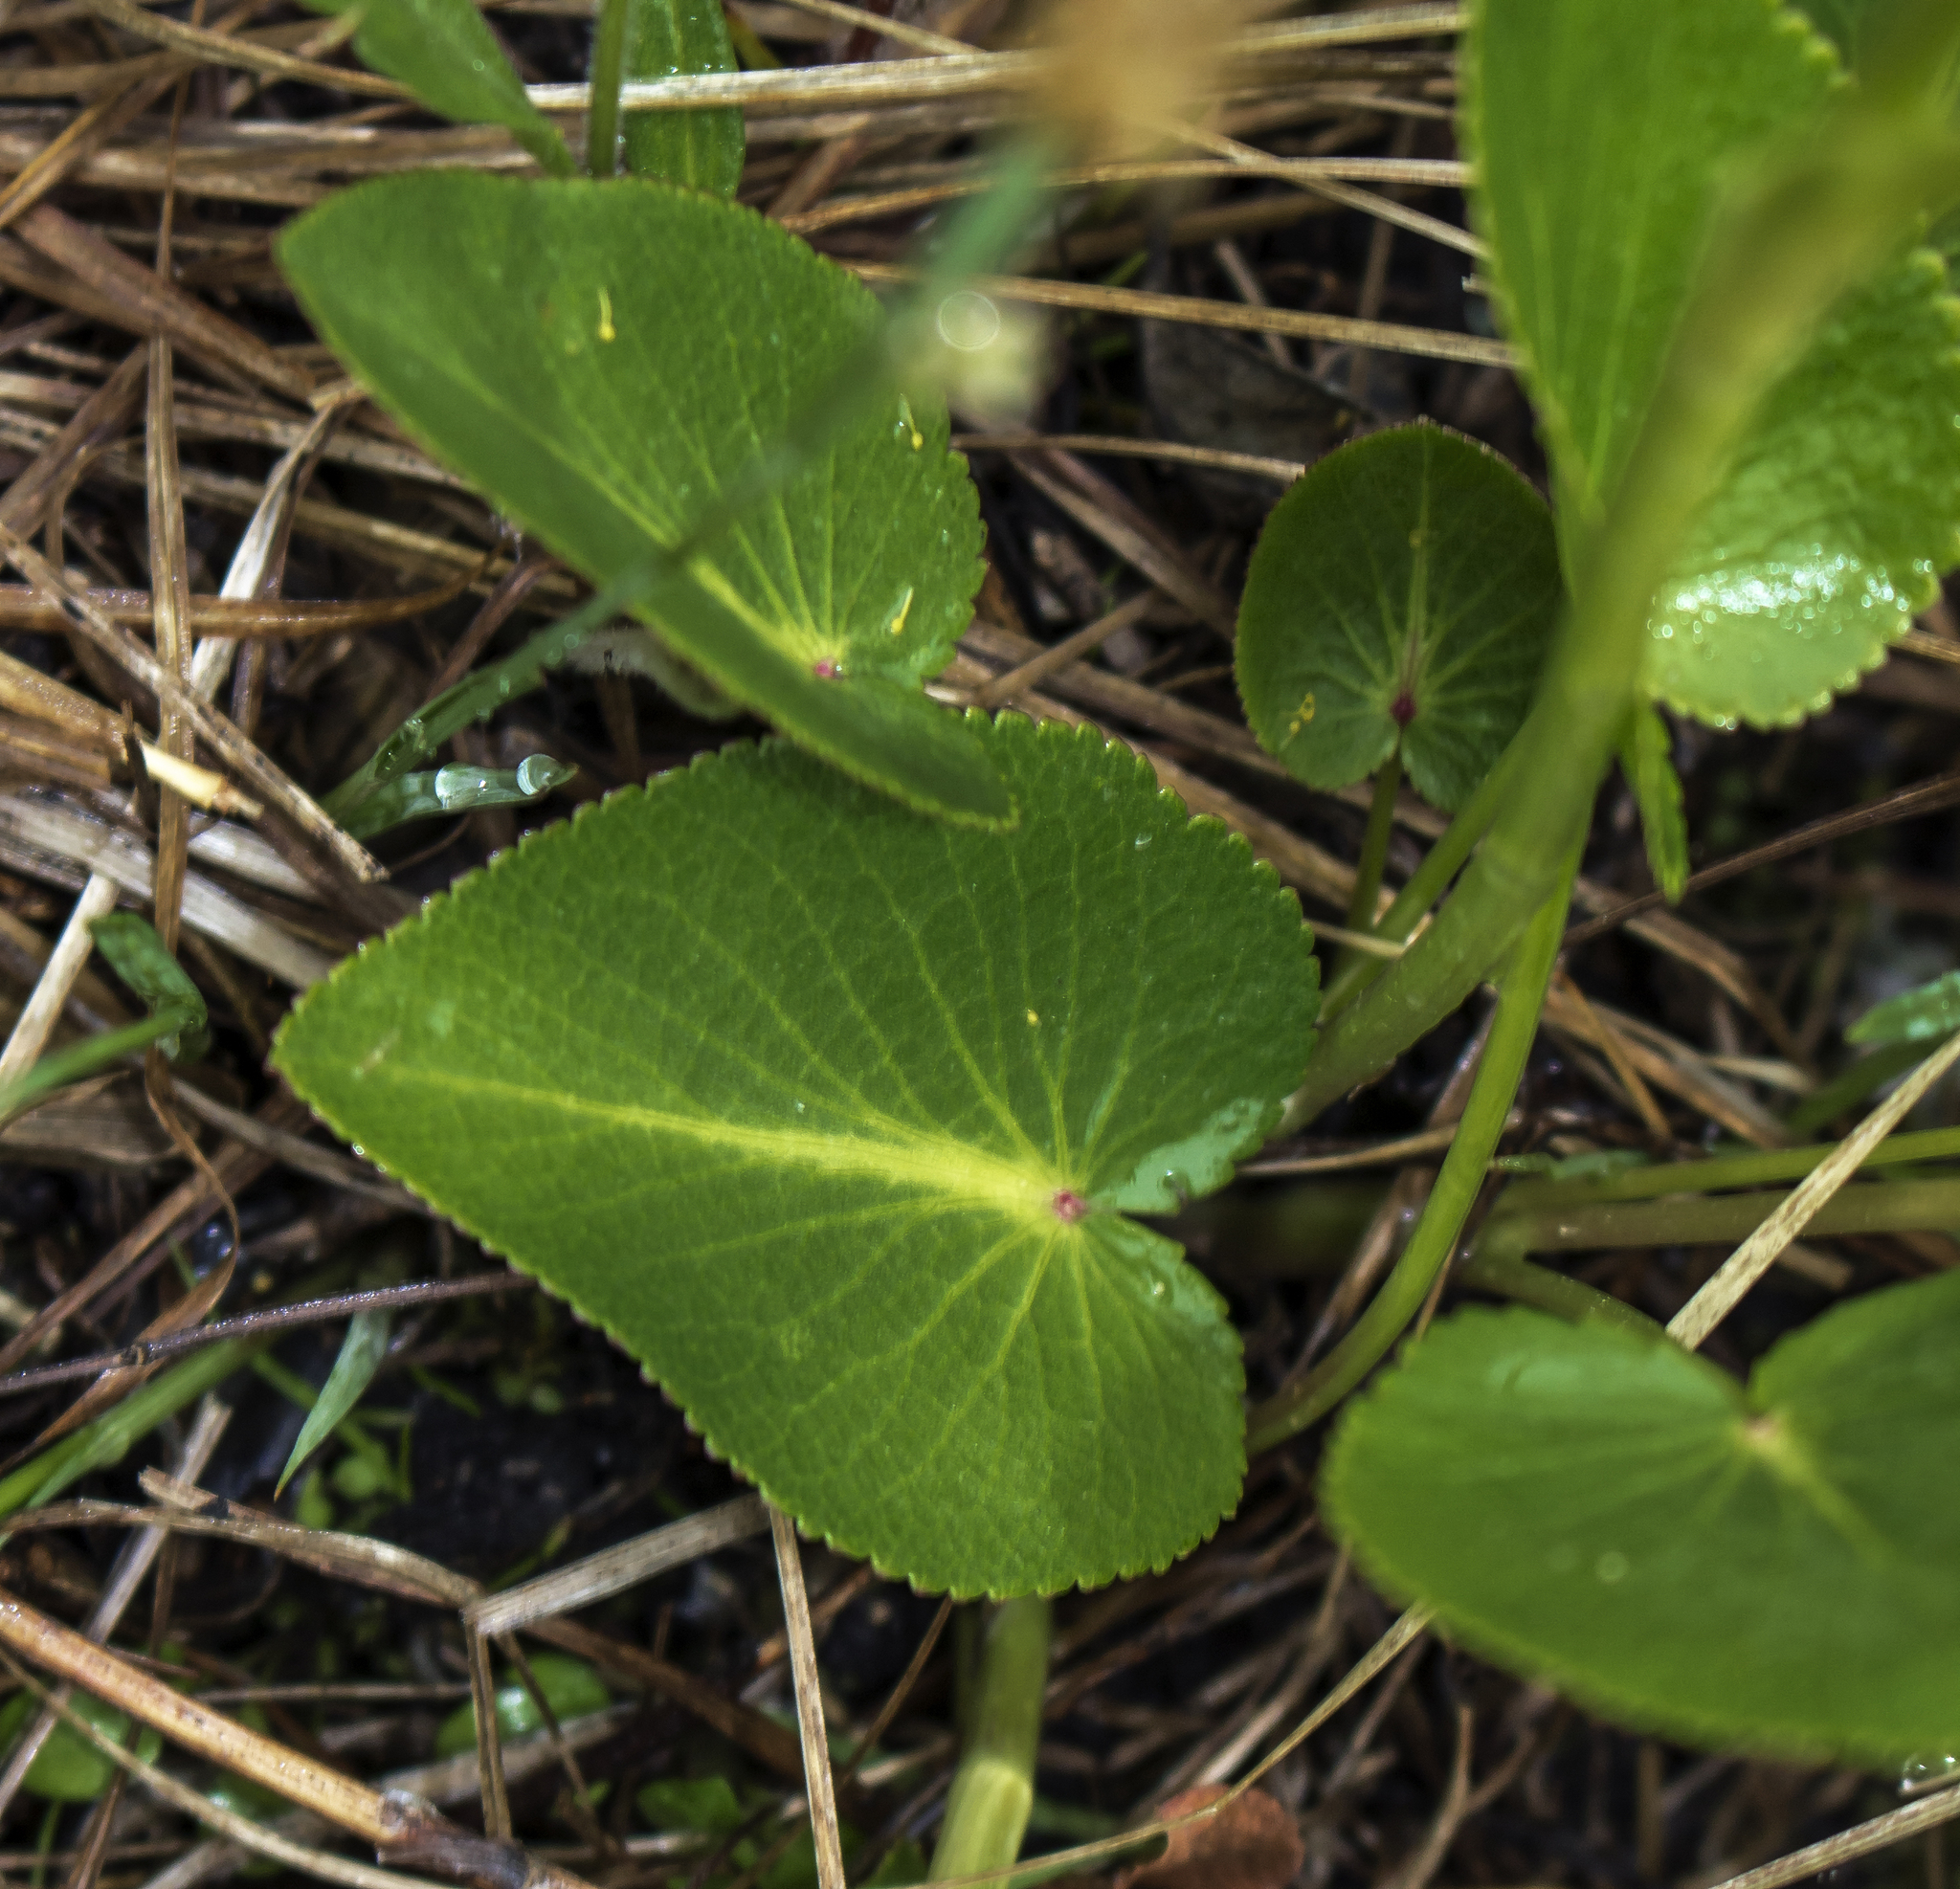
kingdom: Plantae
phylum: Tracheophyta
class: Magnoliopsida
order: Apiales
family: Apiaceae
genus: Zizia
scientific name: Zizia aptera
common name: Heart-leaved alexanders
